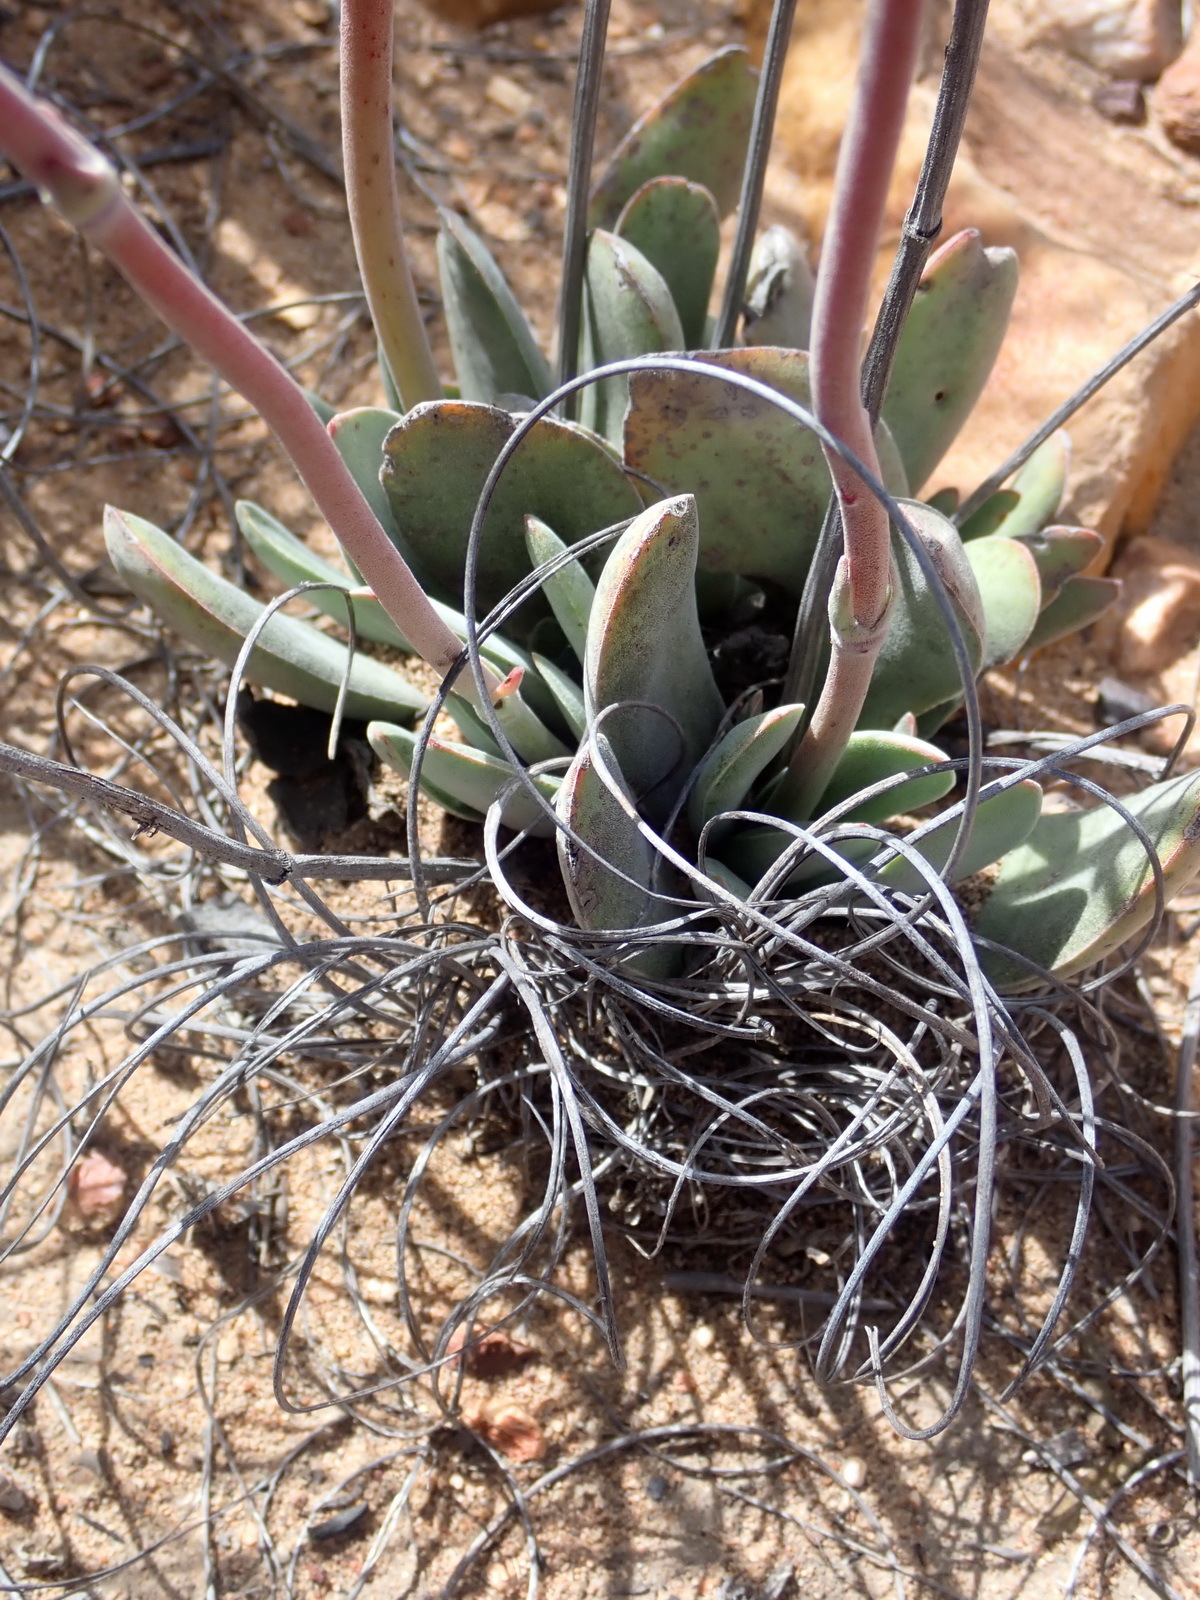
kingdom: Plantae
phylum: Tracheophyta
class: Magnoliopsida
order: Saxifragales
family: Crassulaceae
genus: Crassula
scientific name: Crassula cotyledonis
